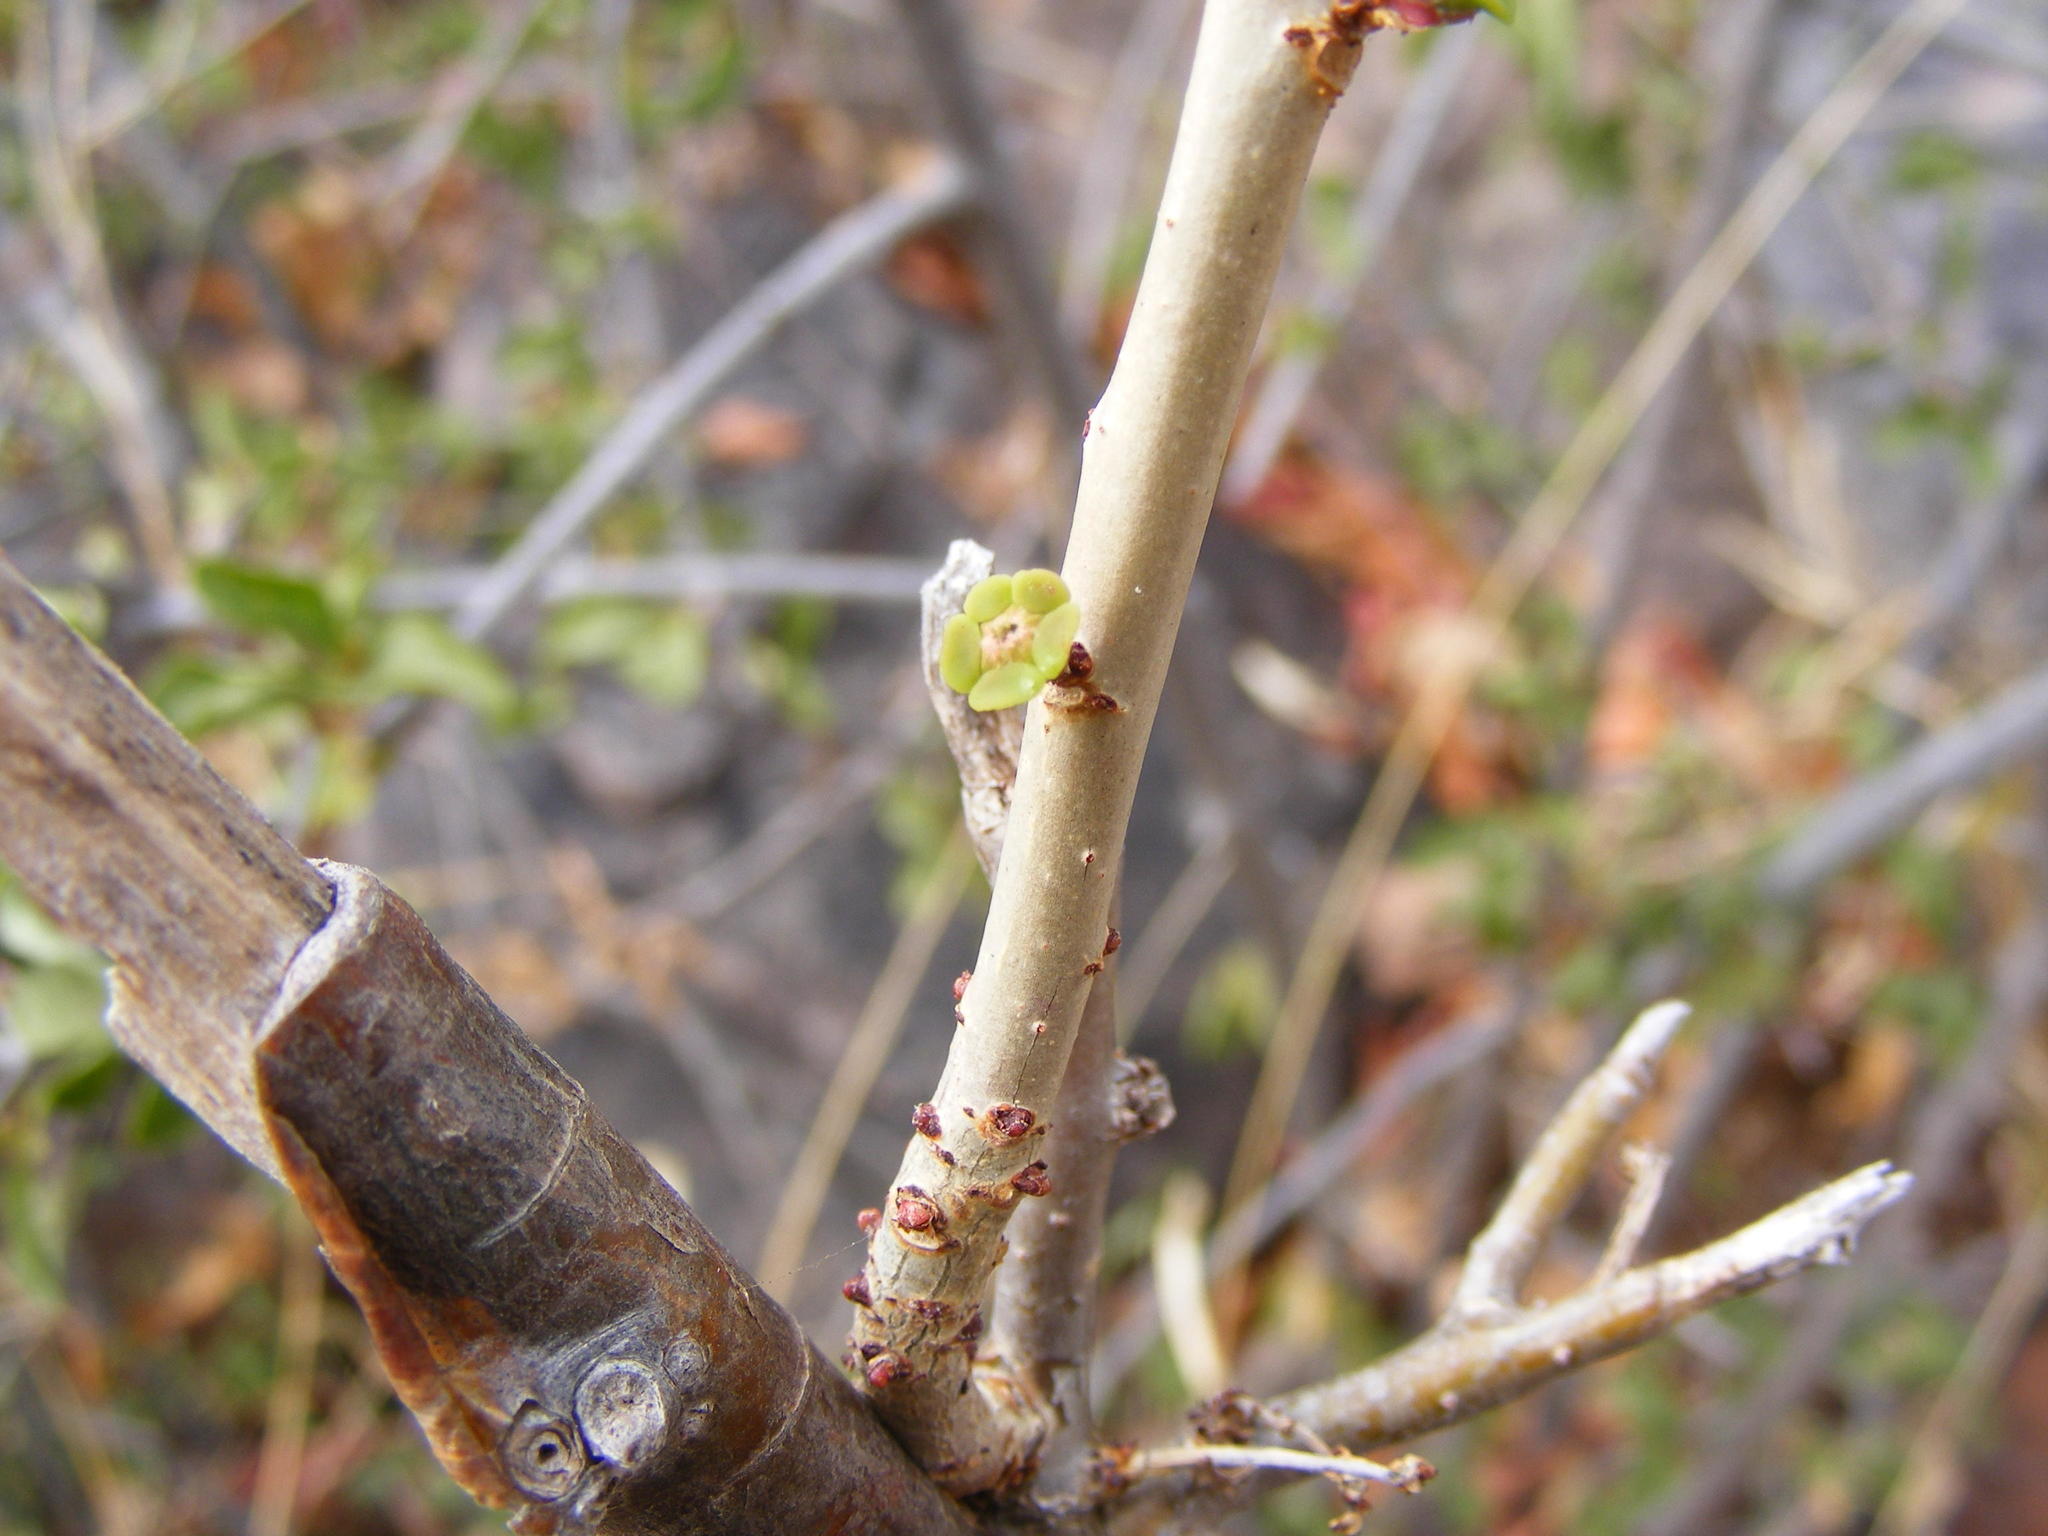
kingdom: Plantae
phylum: Tracheophyta
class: Magnoliopsida
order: Malpighiales
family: Euphorbiaceae
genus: Euphorbia
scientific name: Euphorbia guerichiana
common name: Paper-barked milkbush
